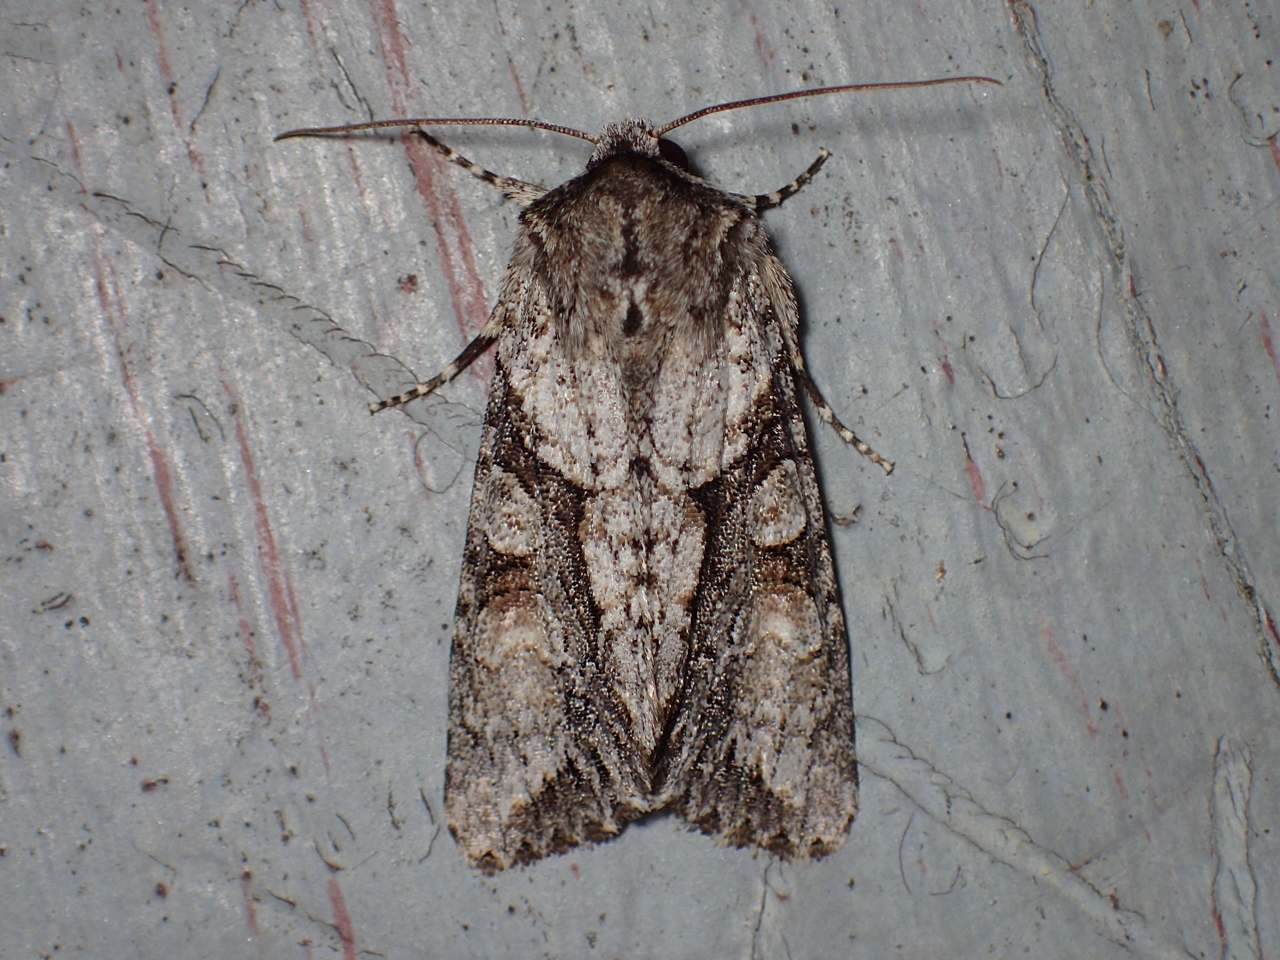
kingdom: Animalia
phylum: Arthropoda
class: Insecta
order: Lepidoptera
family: Noctuidae
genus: Achatia
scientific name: Achatia distincta
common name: Distinct quaker
